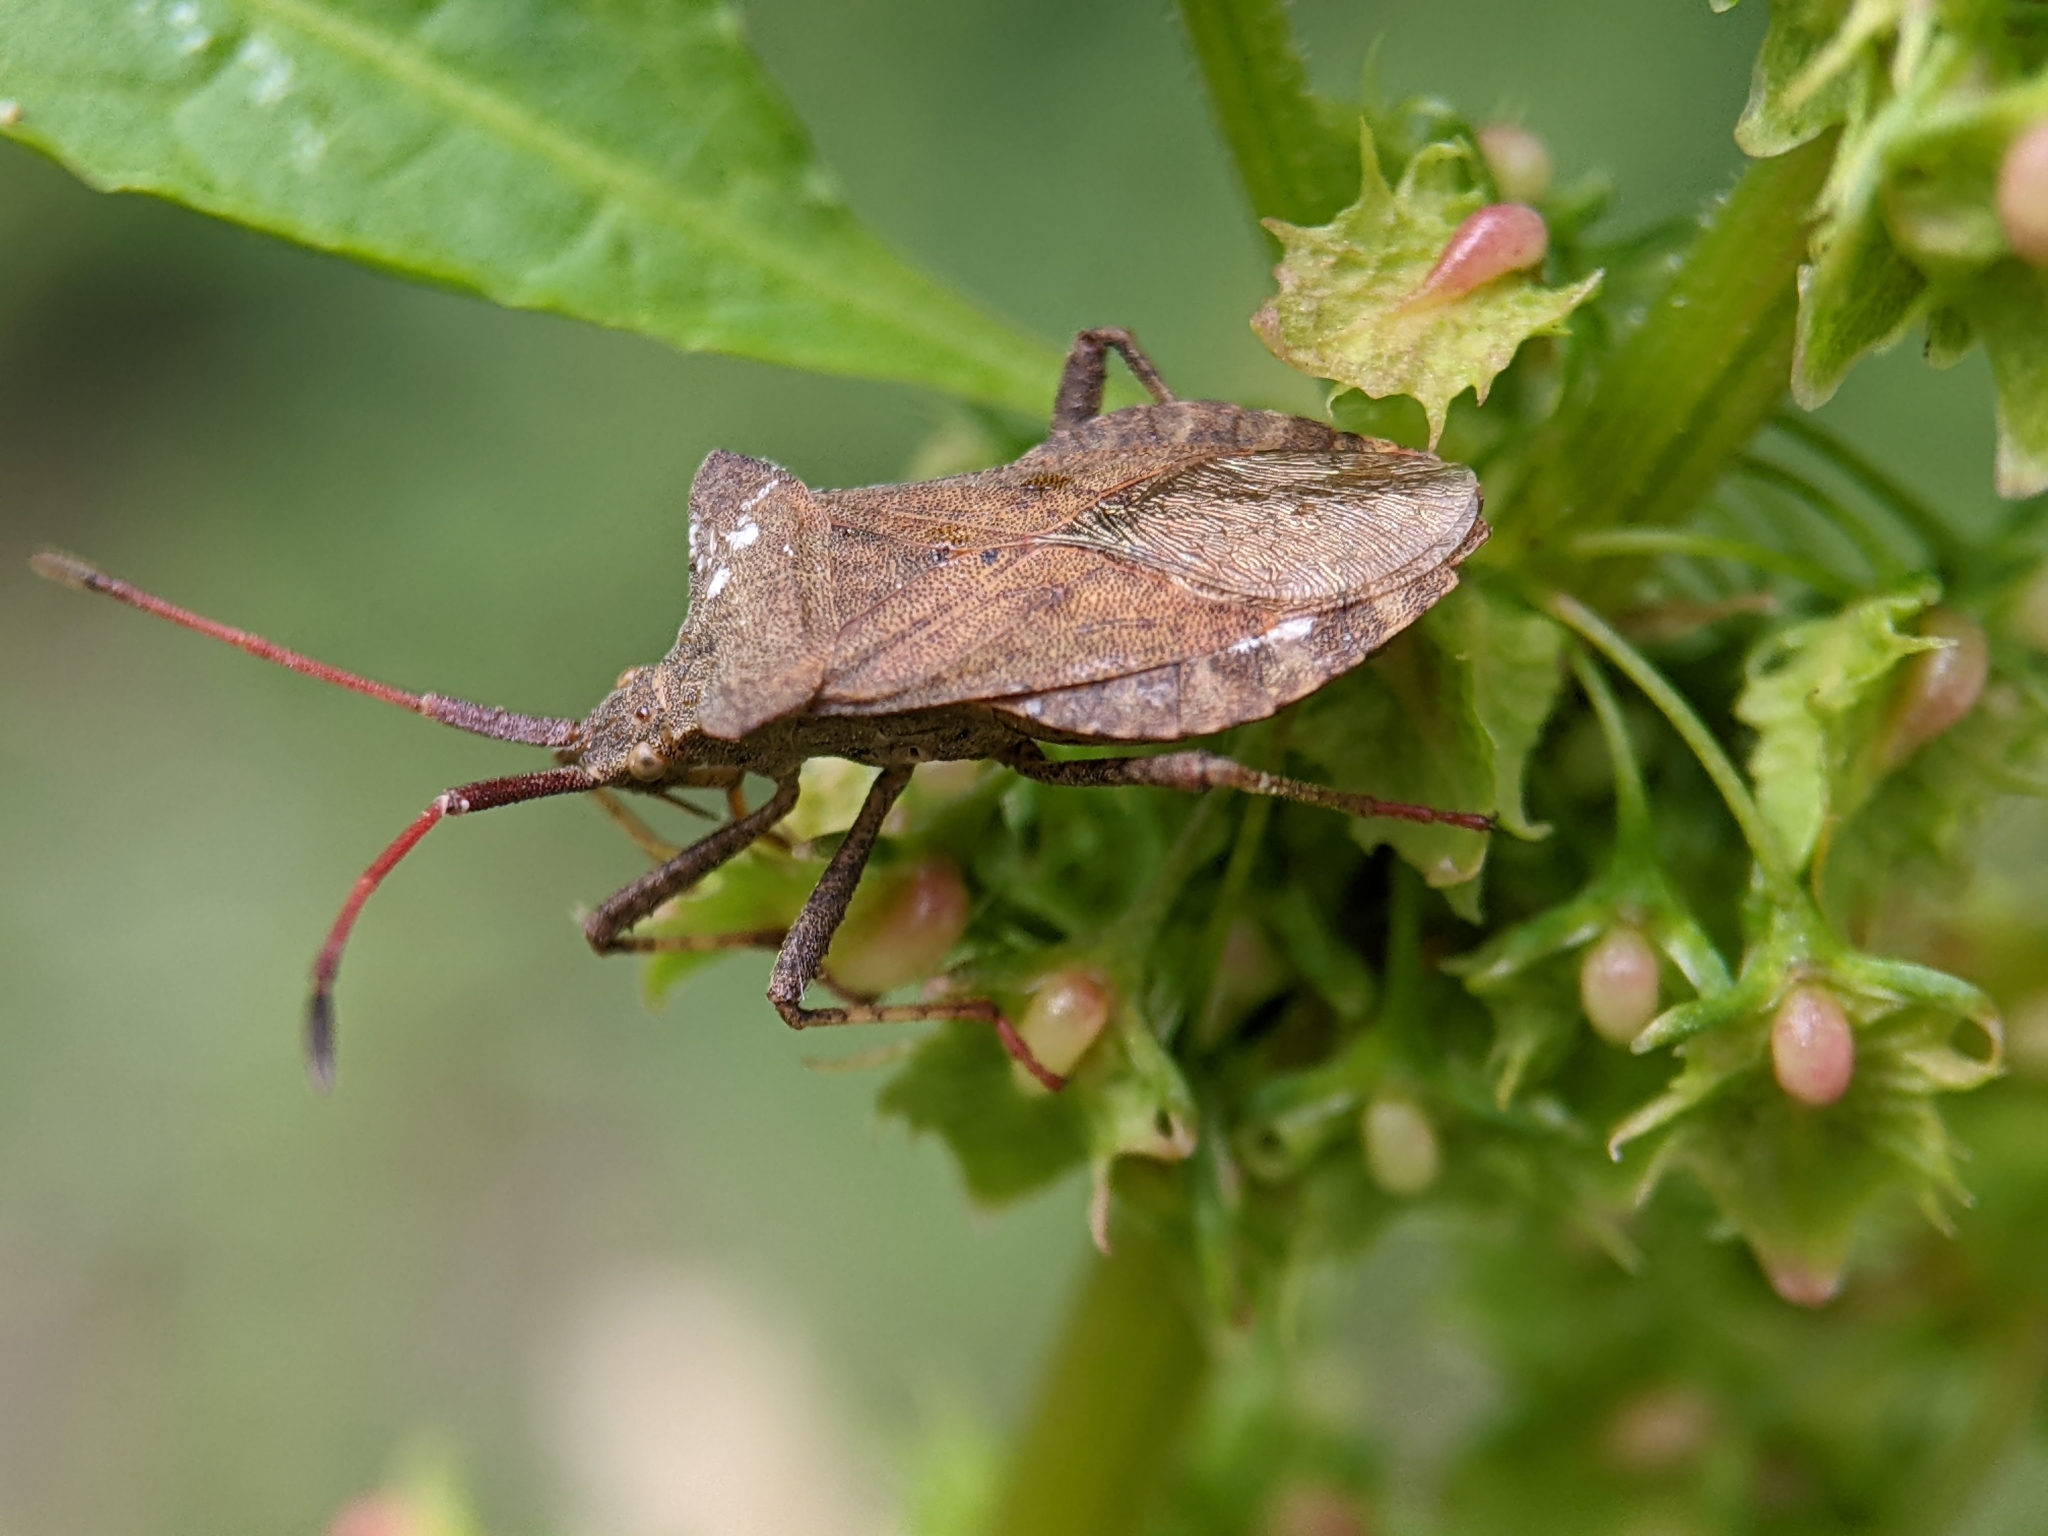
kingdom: Animalia
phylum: Arthropoda
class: Insecta
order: Hemiptera
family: Coreidae
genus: Coreus
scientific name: Coreus marginatus
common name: Dock bug
